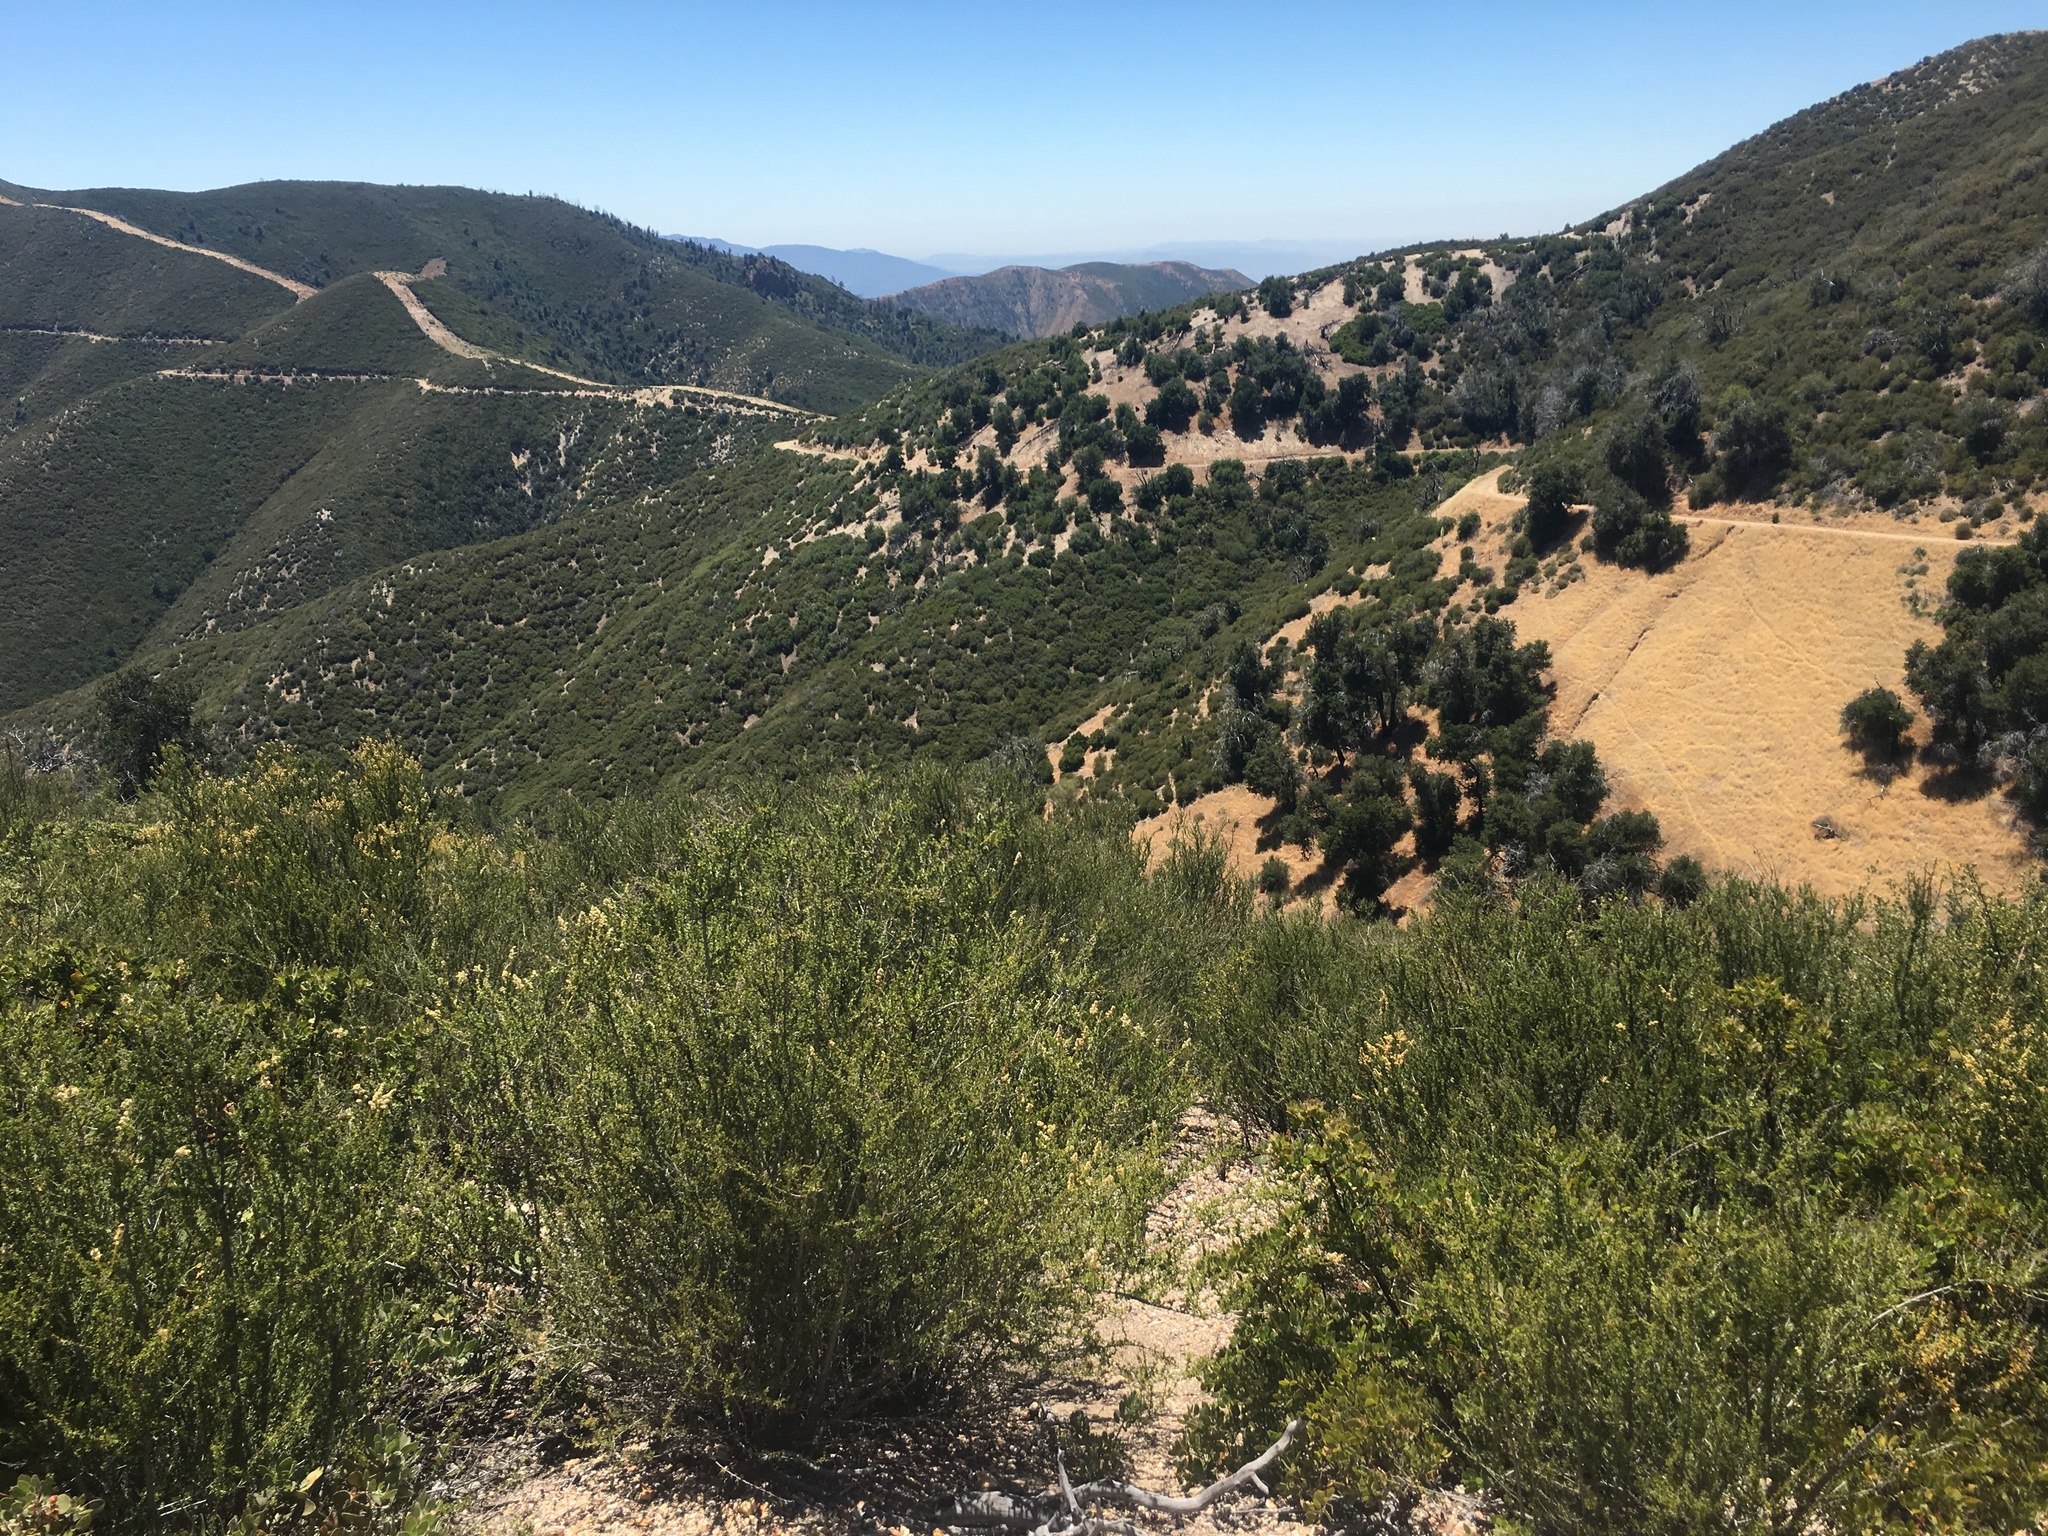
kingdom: Plantae
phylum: Tracheophyta
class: Magnoliopsida
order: Rosales
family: Rosaceae
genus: Adenostoma
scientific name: Adenostoma fasciculatum
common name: Chamise
